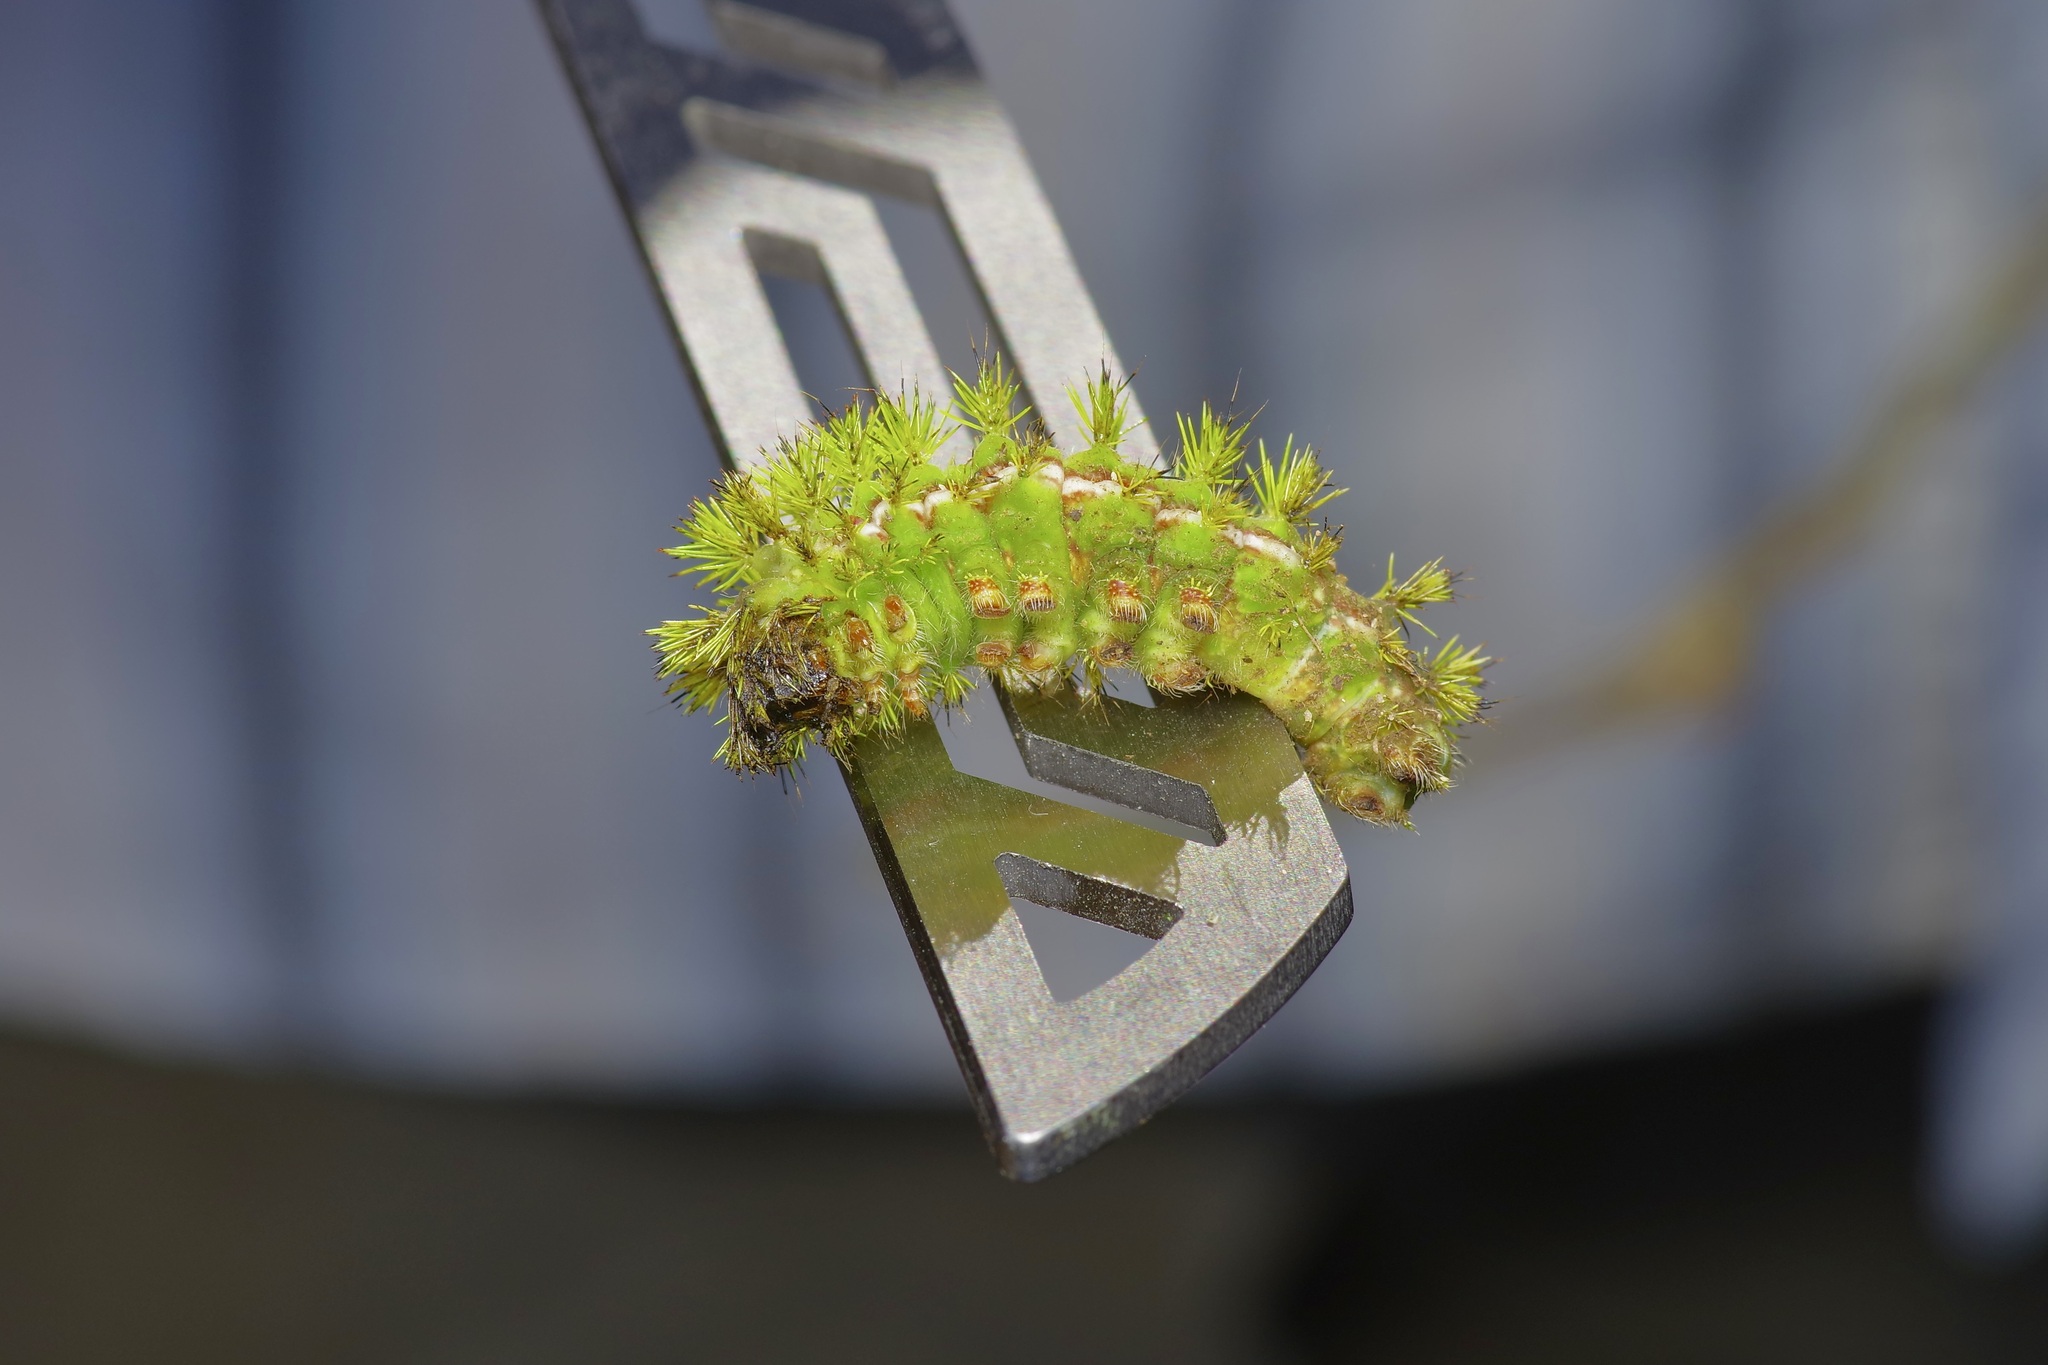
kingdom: Animalia
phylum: Arthropoda
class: Insecta
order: Lepidoptera
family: Saturniidae
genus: Automeris
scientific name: Automeris io
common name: Io moth
